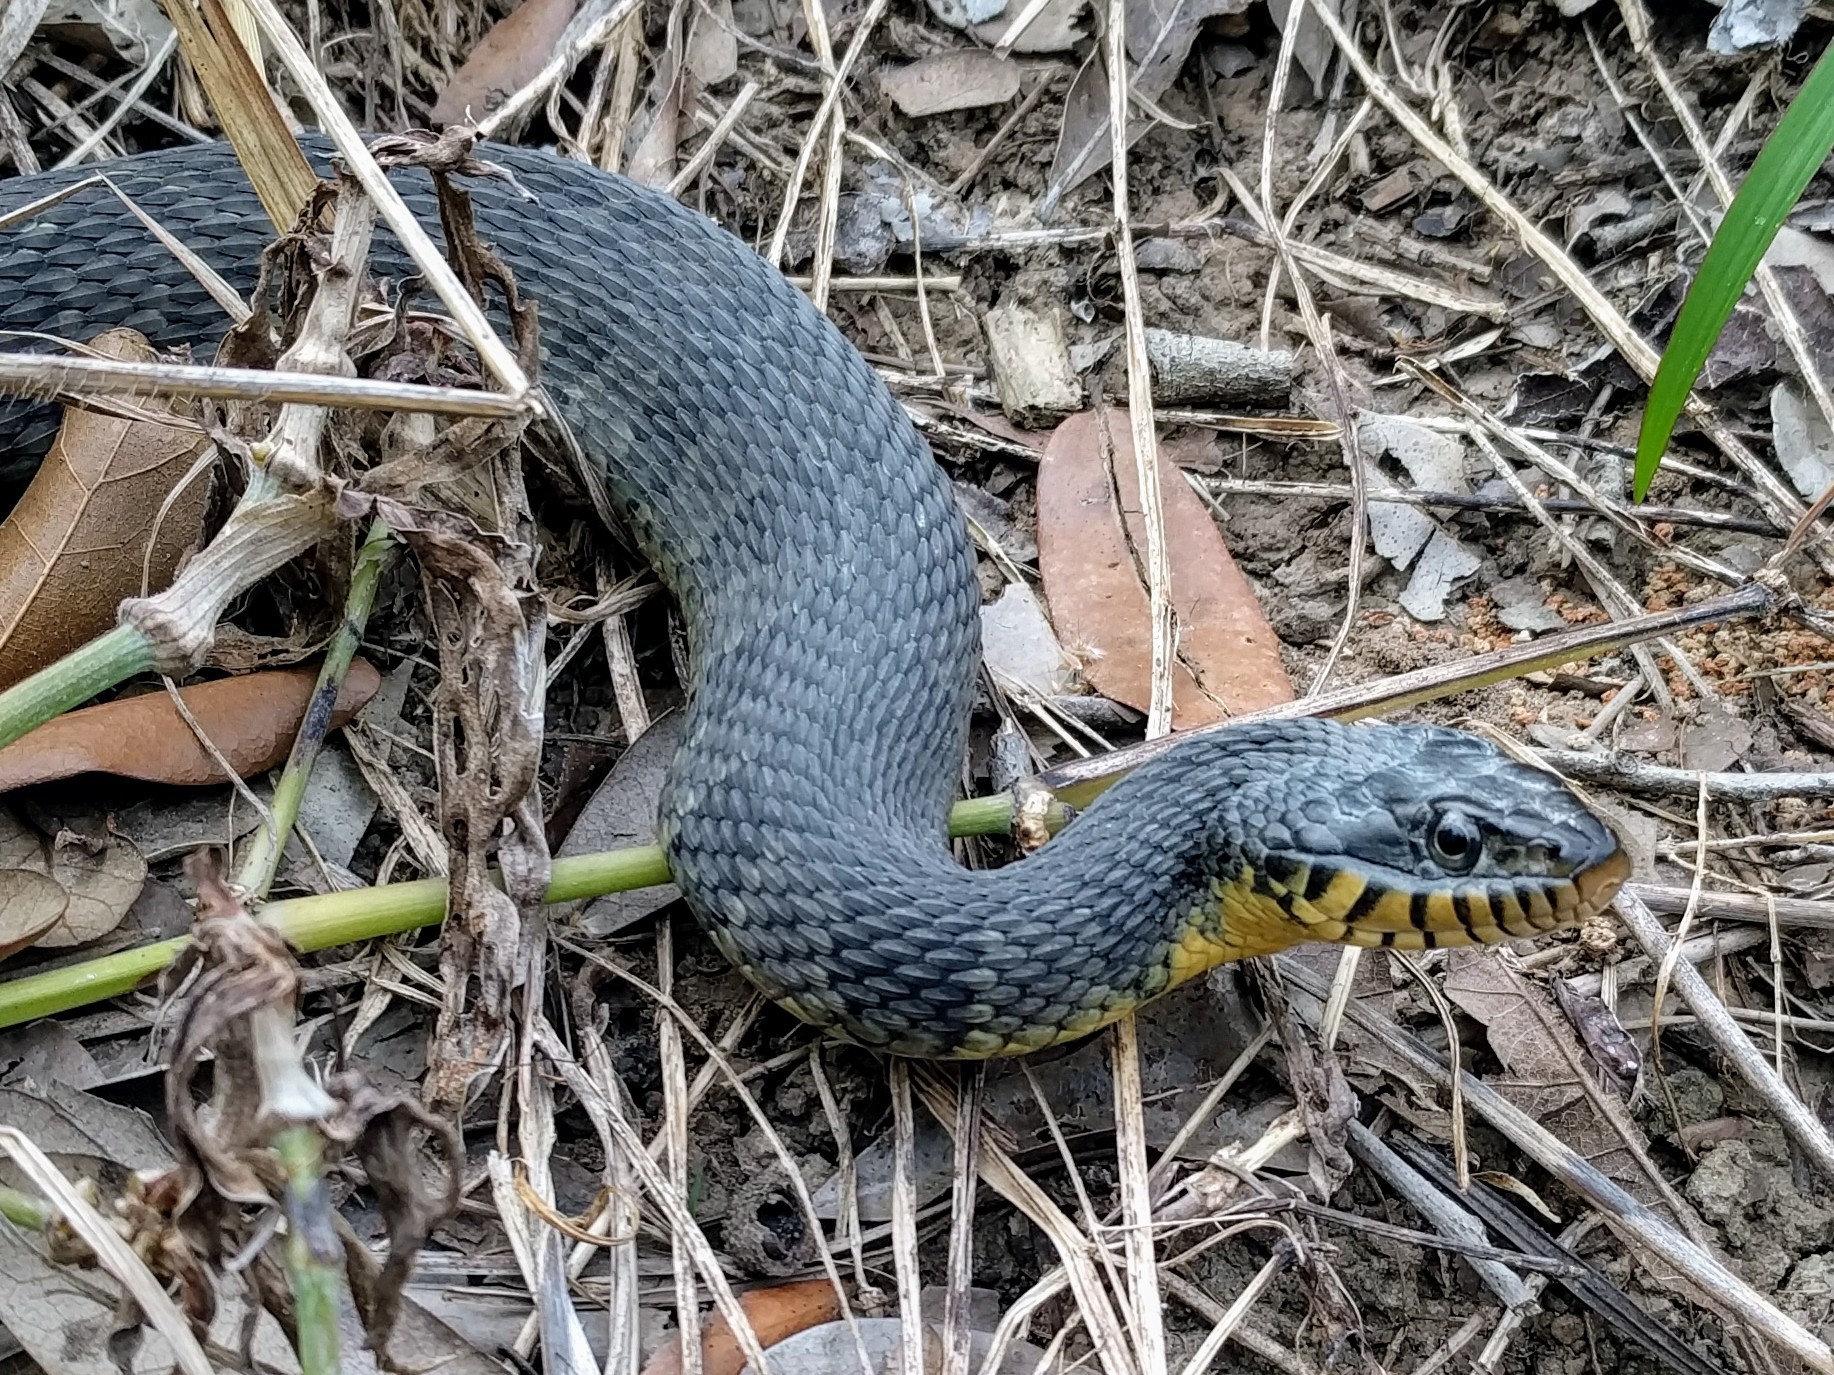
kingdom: Animalia
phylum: Chordata
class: Squamata
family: Colubridae
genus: Nerodia
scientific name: Nerodia erythrogaster
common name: Plainbelly water snake
